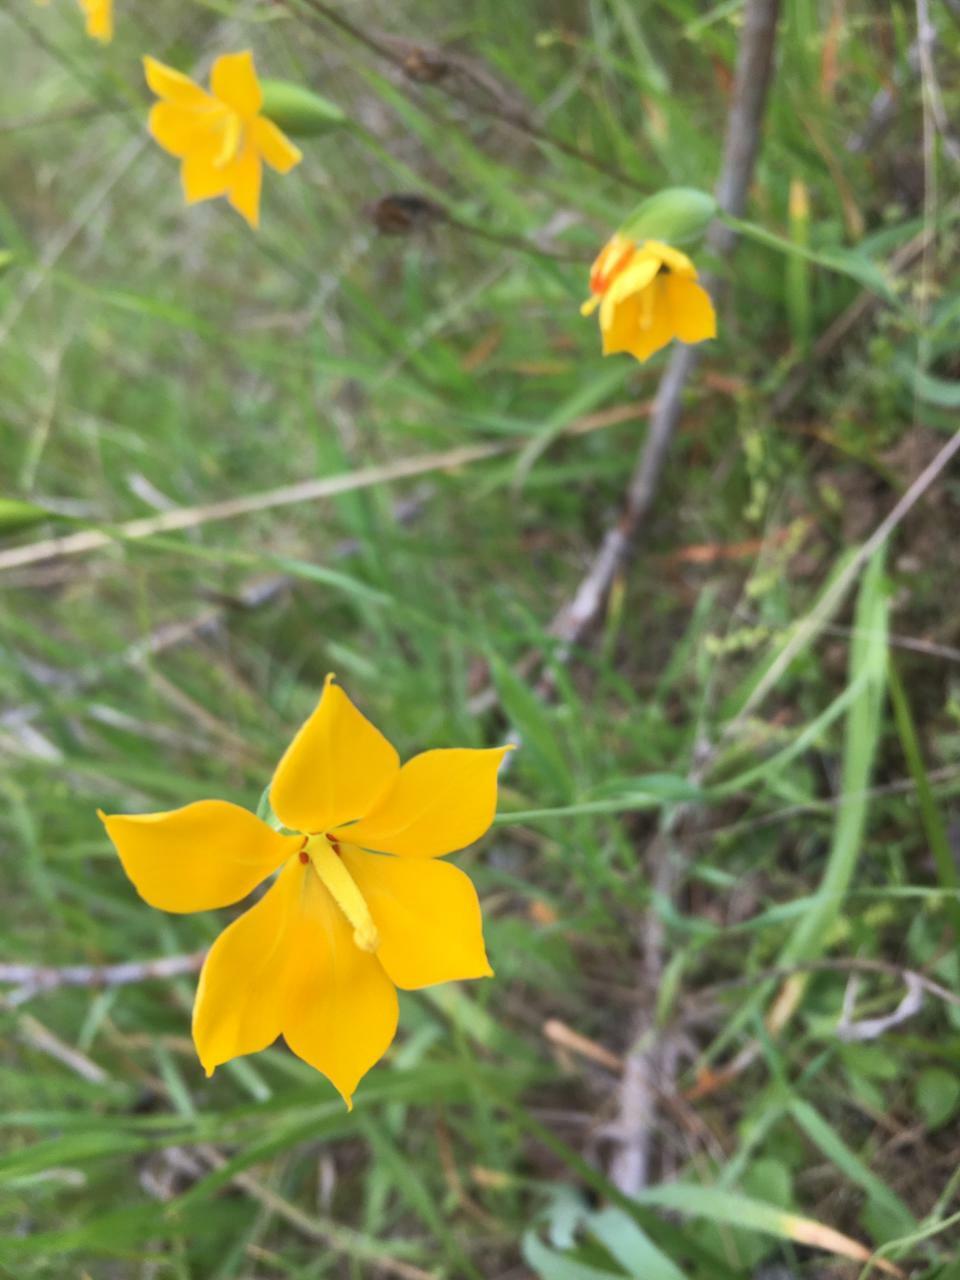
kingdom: Plantae
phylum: Tracheophyta
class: Liliopsida
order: Asparagales
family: Iridaceae
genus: Solenomelus
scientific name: Solenomelus pedunculatus
